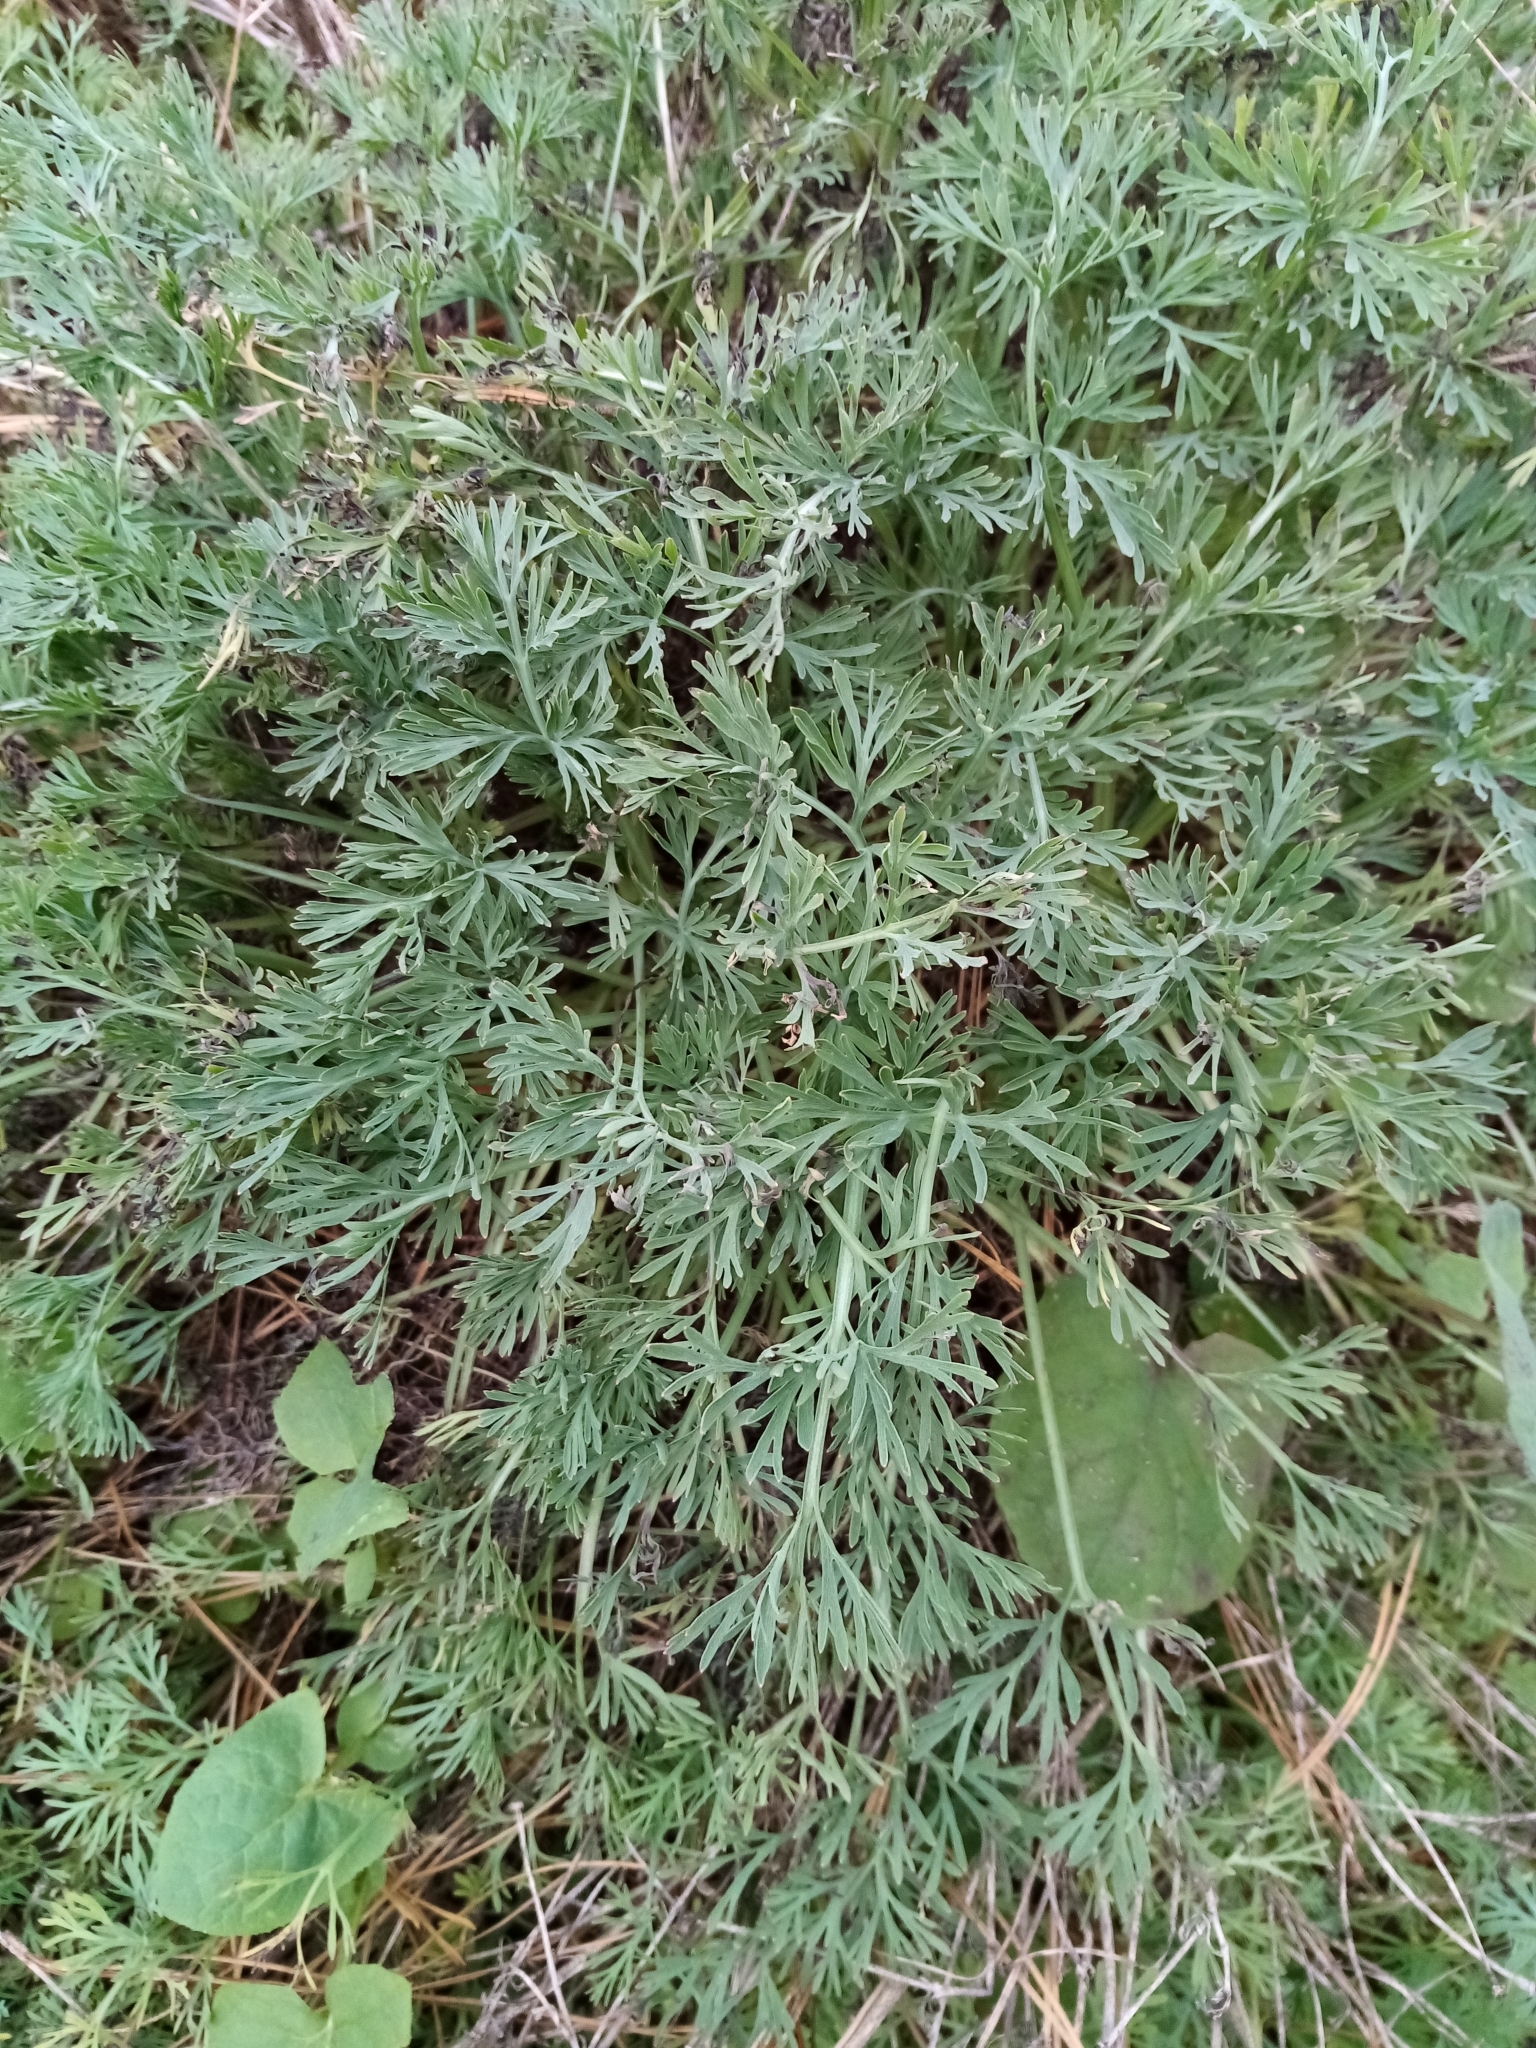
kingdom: Plantae
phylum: Tracheophyta
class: Magnoliopsida
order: Ranunculales
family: Papaveraceae
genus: Eschscholzia
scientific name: Eschscholzia californica
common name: California poppy
